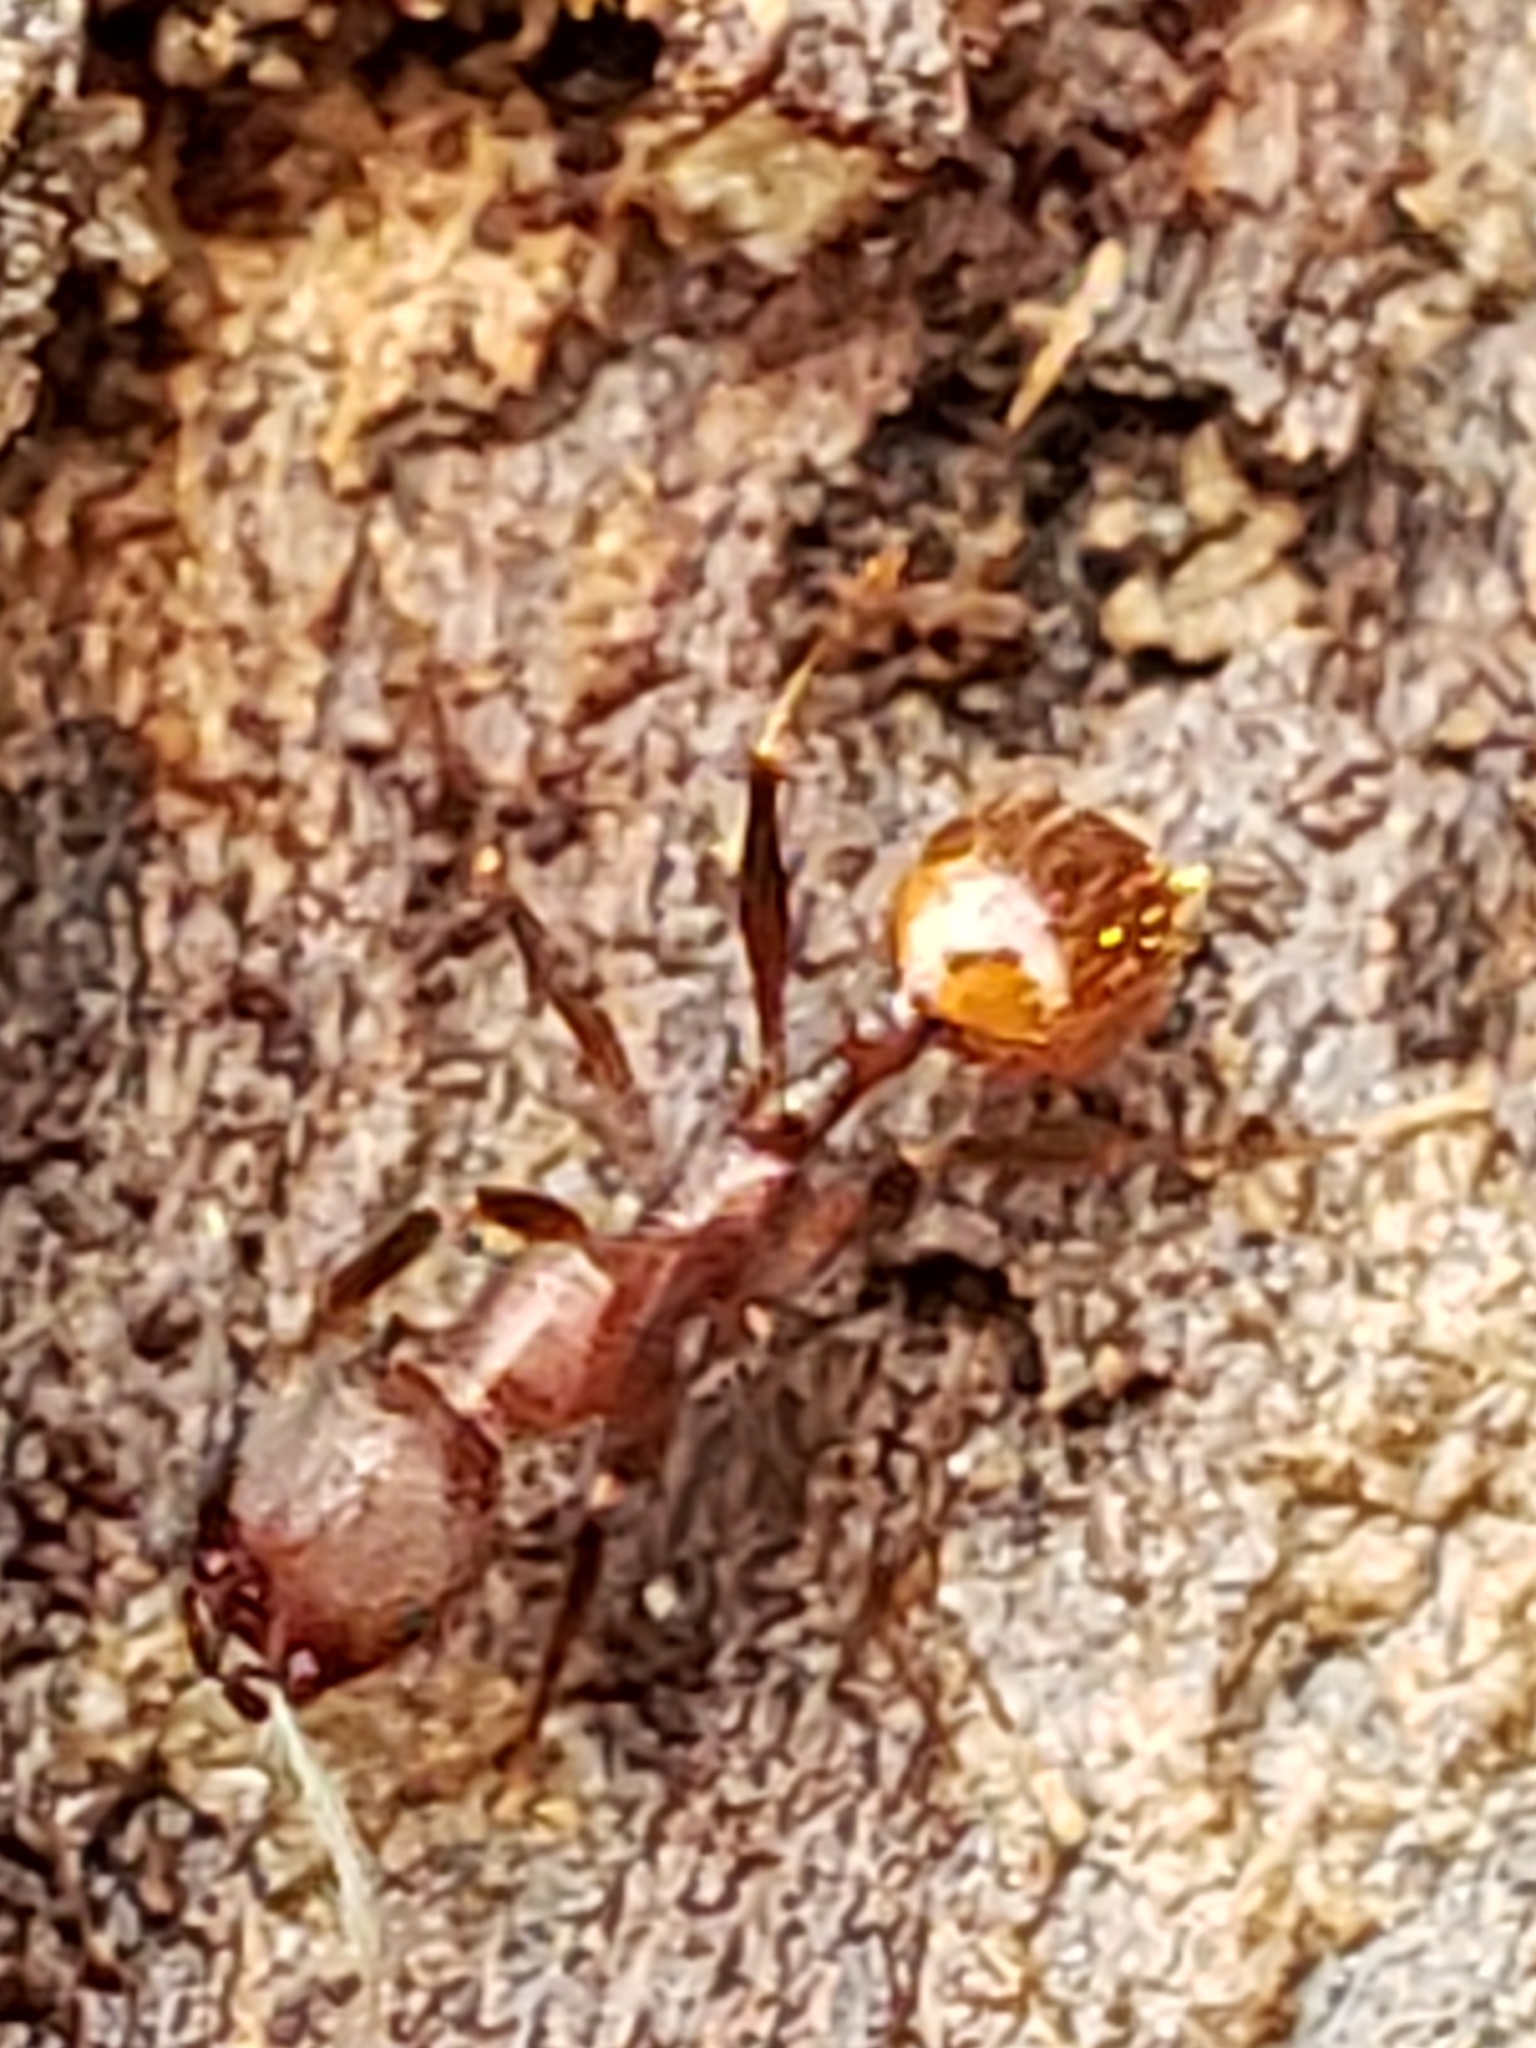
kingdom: Animalia
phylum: Arthropoda
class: Insecta
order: Hymenoptera
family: Formicidae
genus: Aphaenogaster
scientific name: Aphaenogaster fulva
